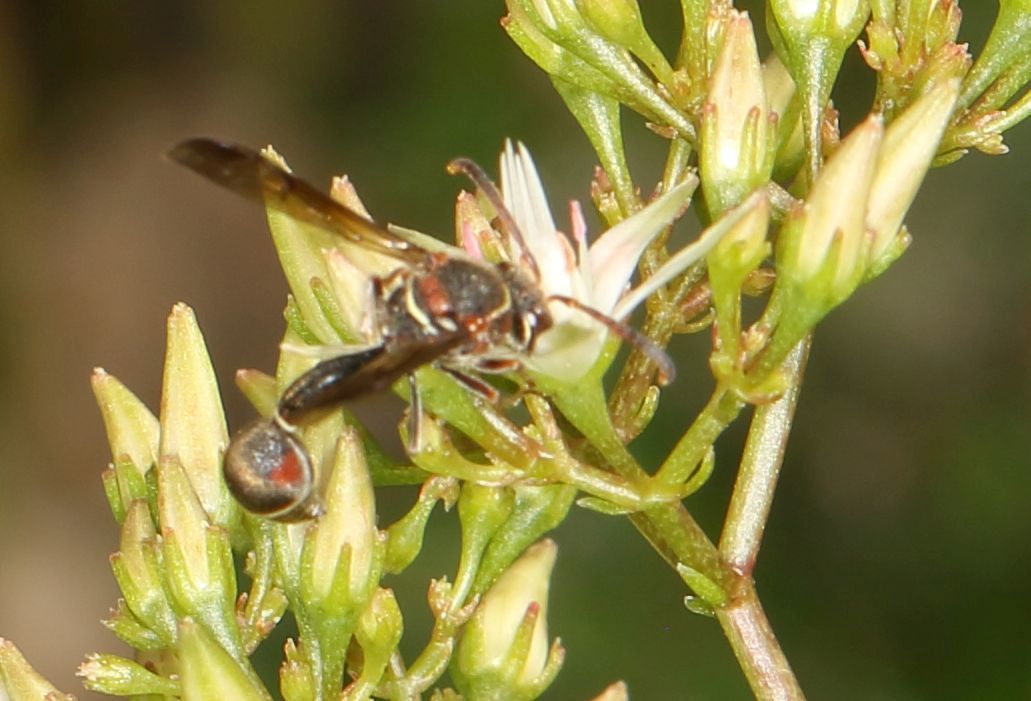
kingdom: Animalia
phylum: Arthropoda
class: Insecta
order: Hymenoptera
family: Vespidae
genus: Eumenes
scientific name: Eumenes
